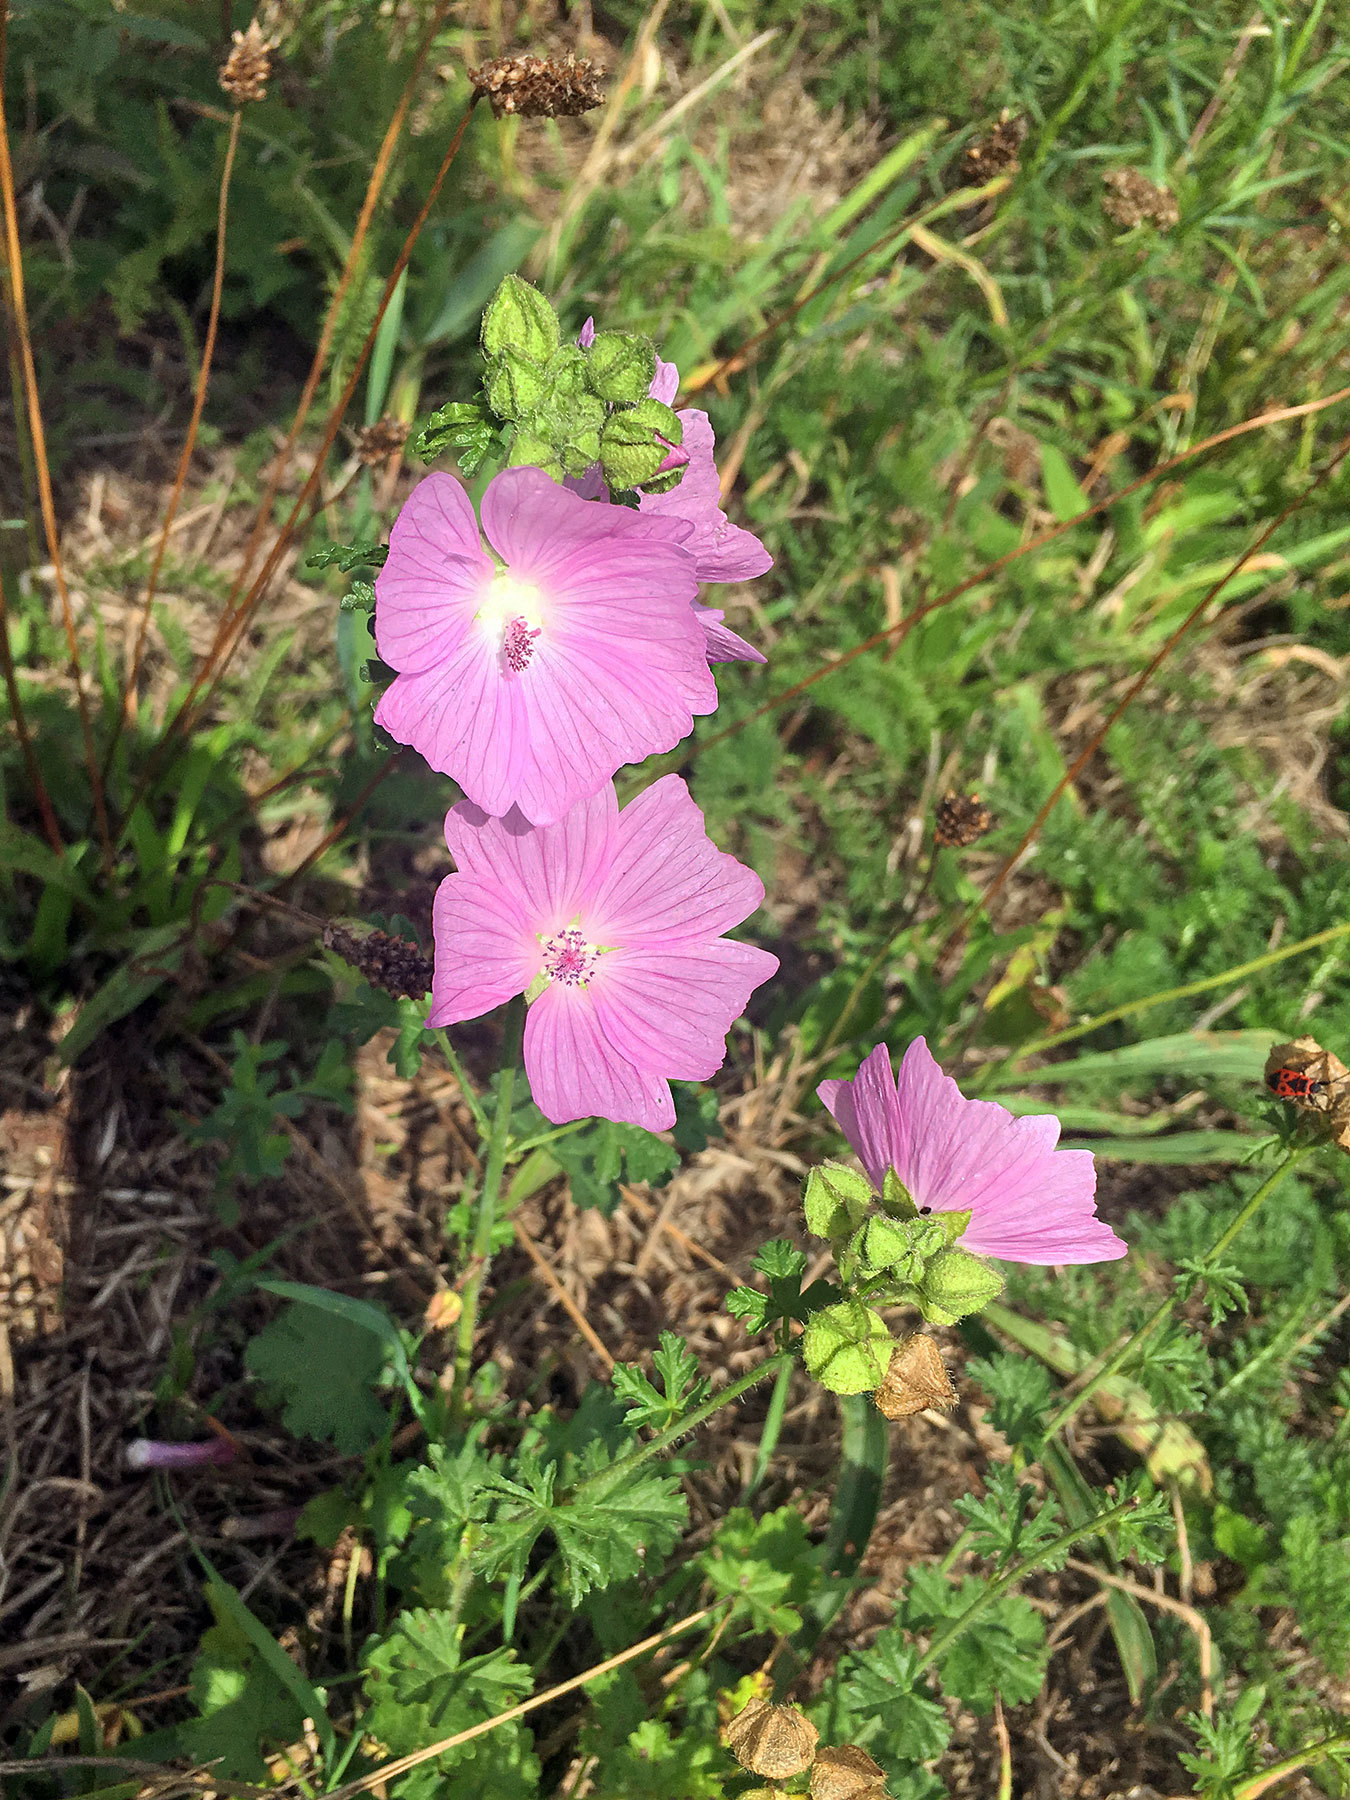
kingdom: Plantae
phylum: Tracheophyta
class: Magnoliopsida
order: Malvales
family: Malvaceae
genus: Malva
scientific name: Malva moschata
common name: Musk mallow
